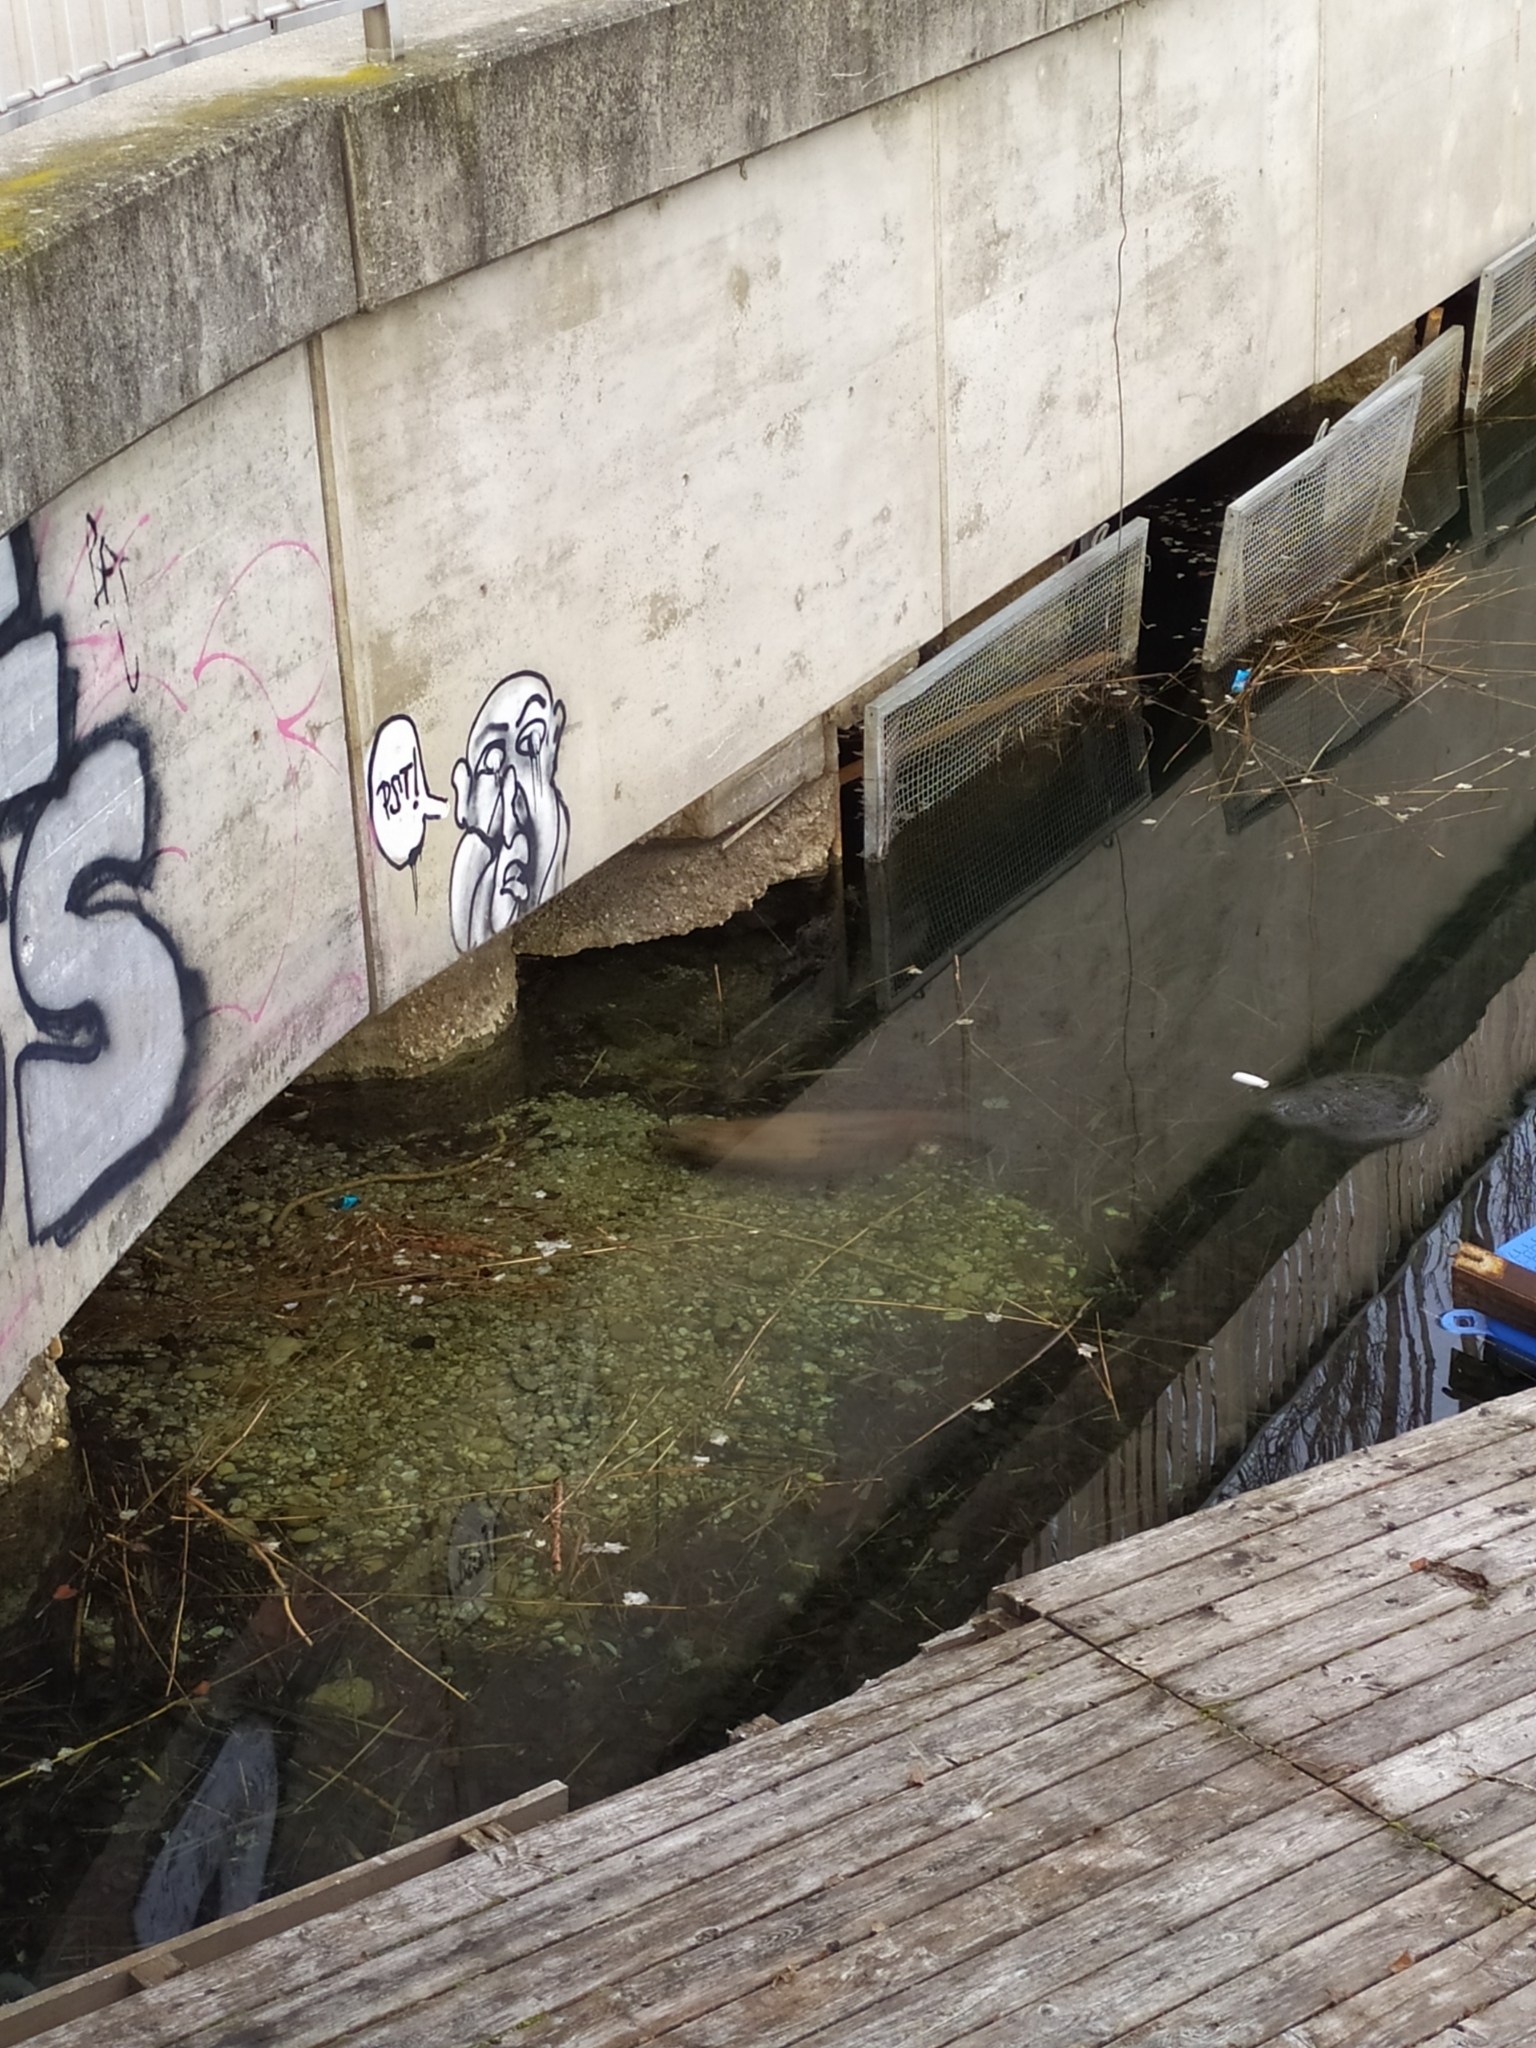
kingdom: Animalia
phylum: Chordata
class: Mammalia
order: Rodentia
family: Castoridae
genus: Castor
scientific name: Castor fiber
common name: Eurasian beaver
